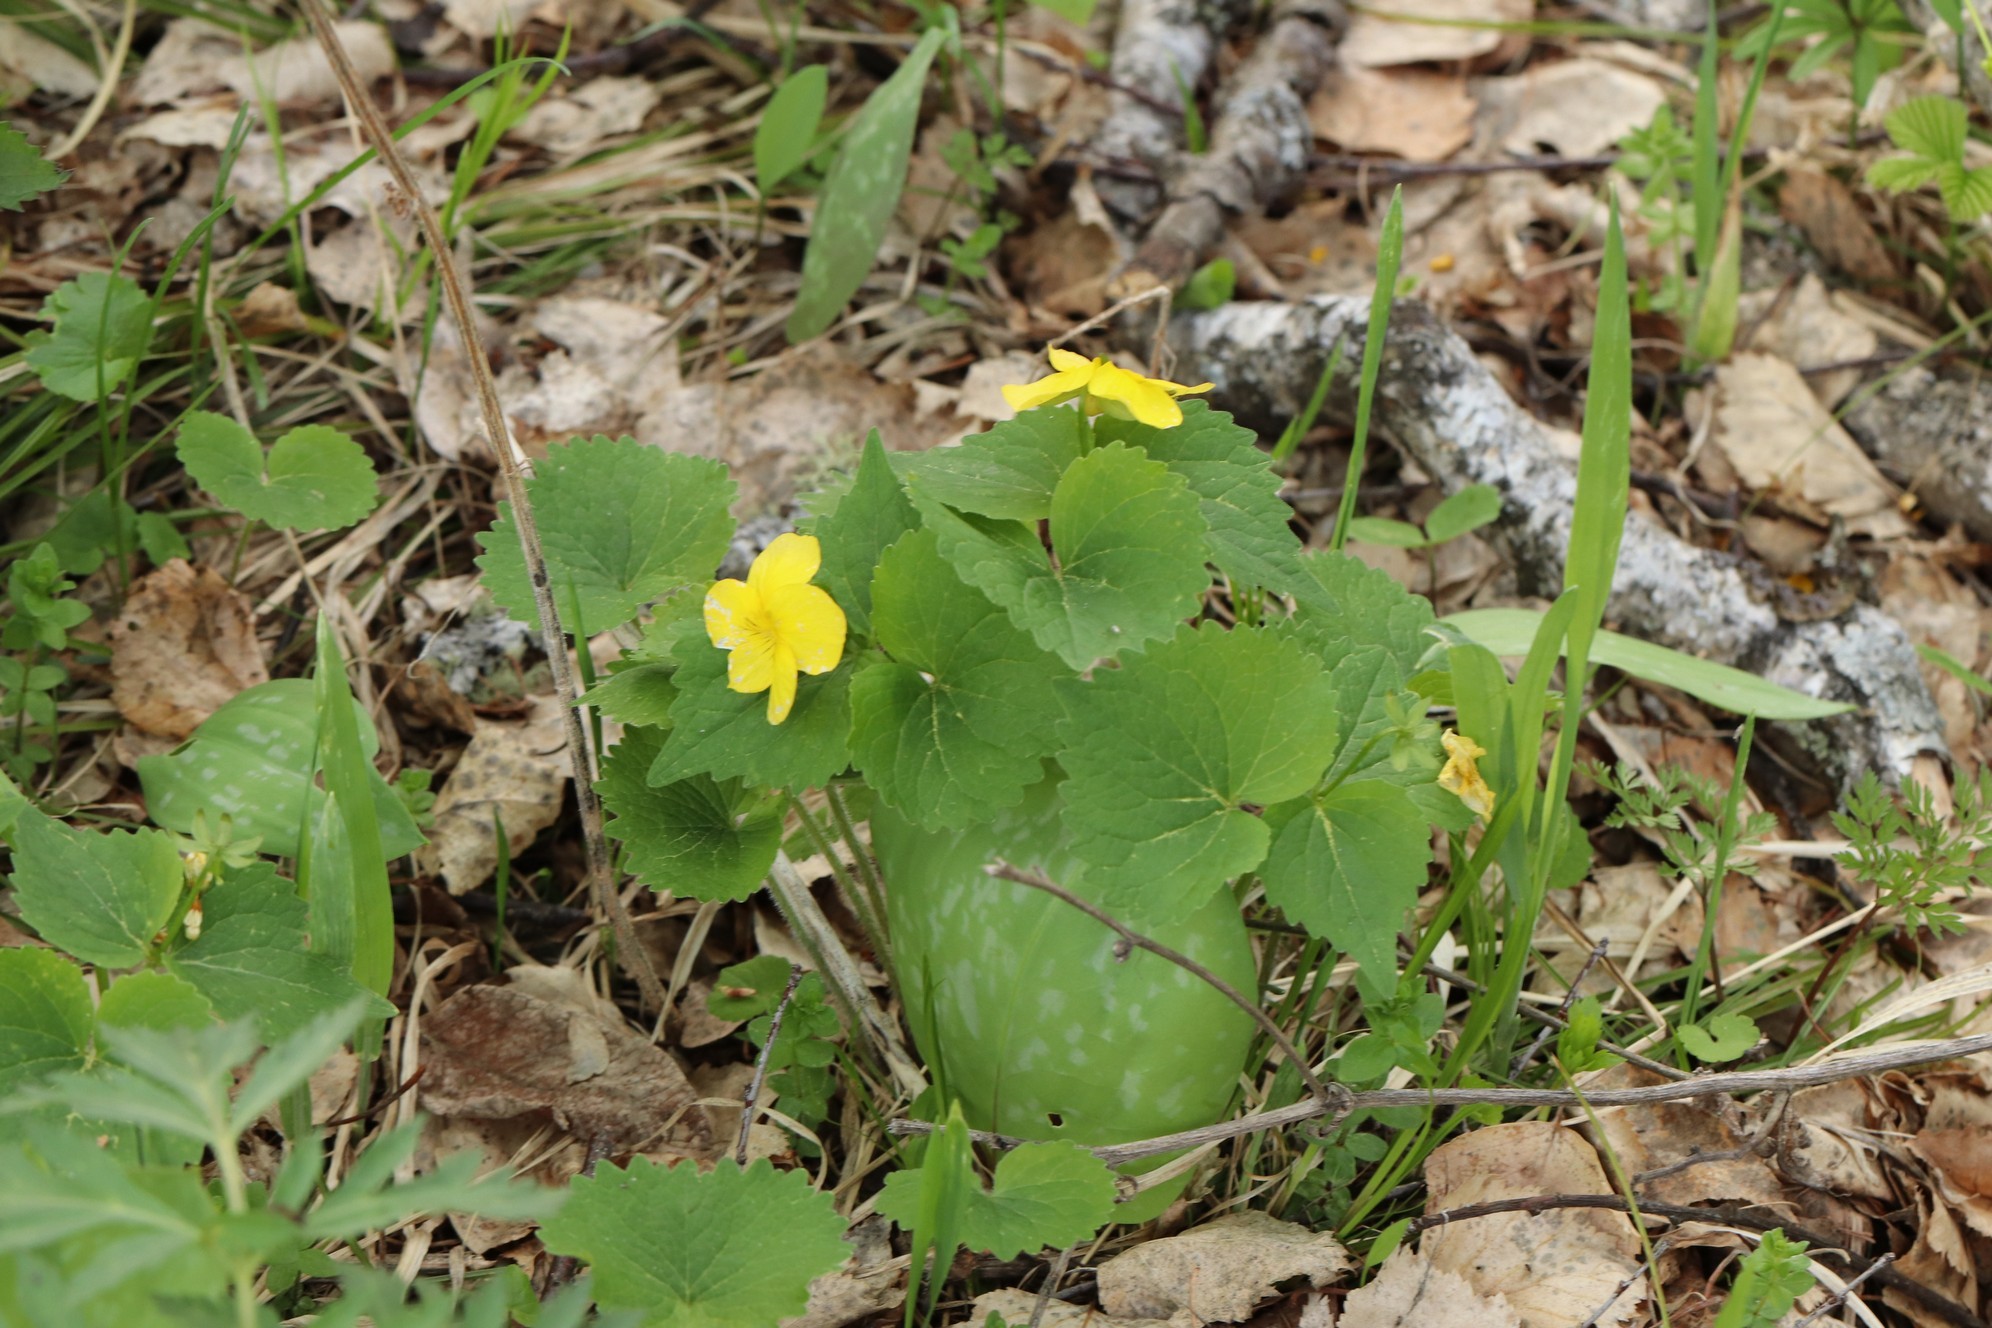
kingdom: Plantae
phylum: Tracheophyta
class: Magnoliopsida
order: Malpighiales
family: Violaceae
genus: Viola
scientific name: Viola uniflora
